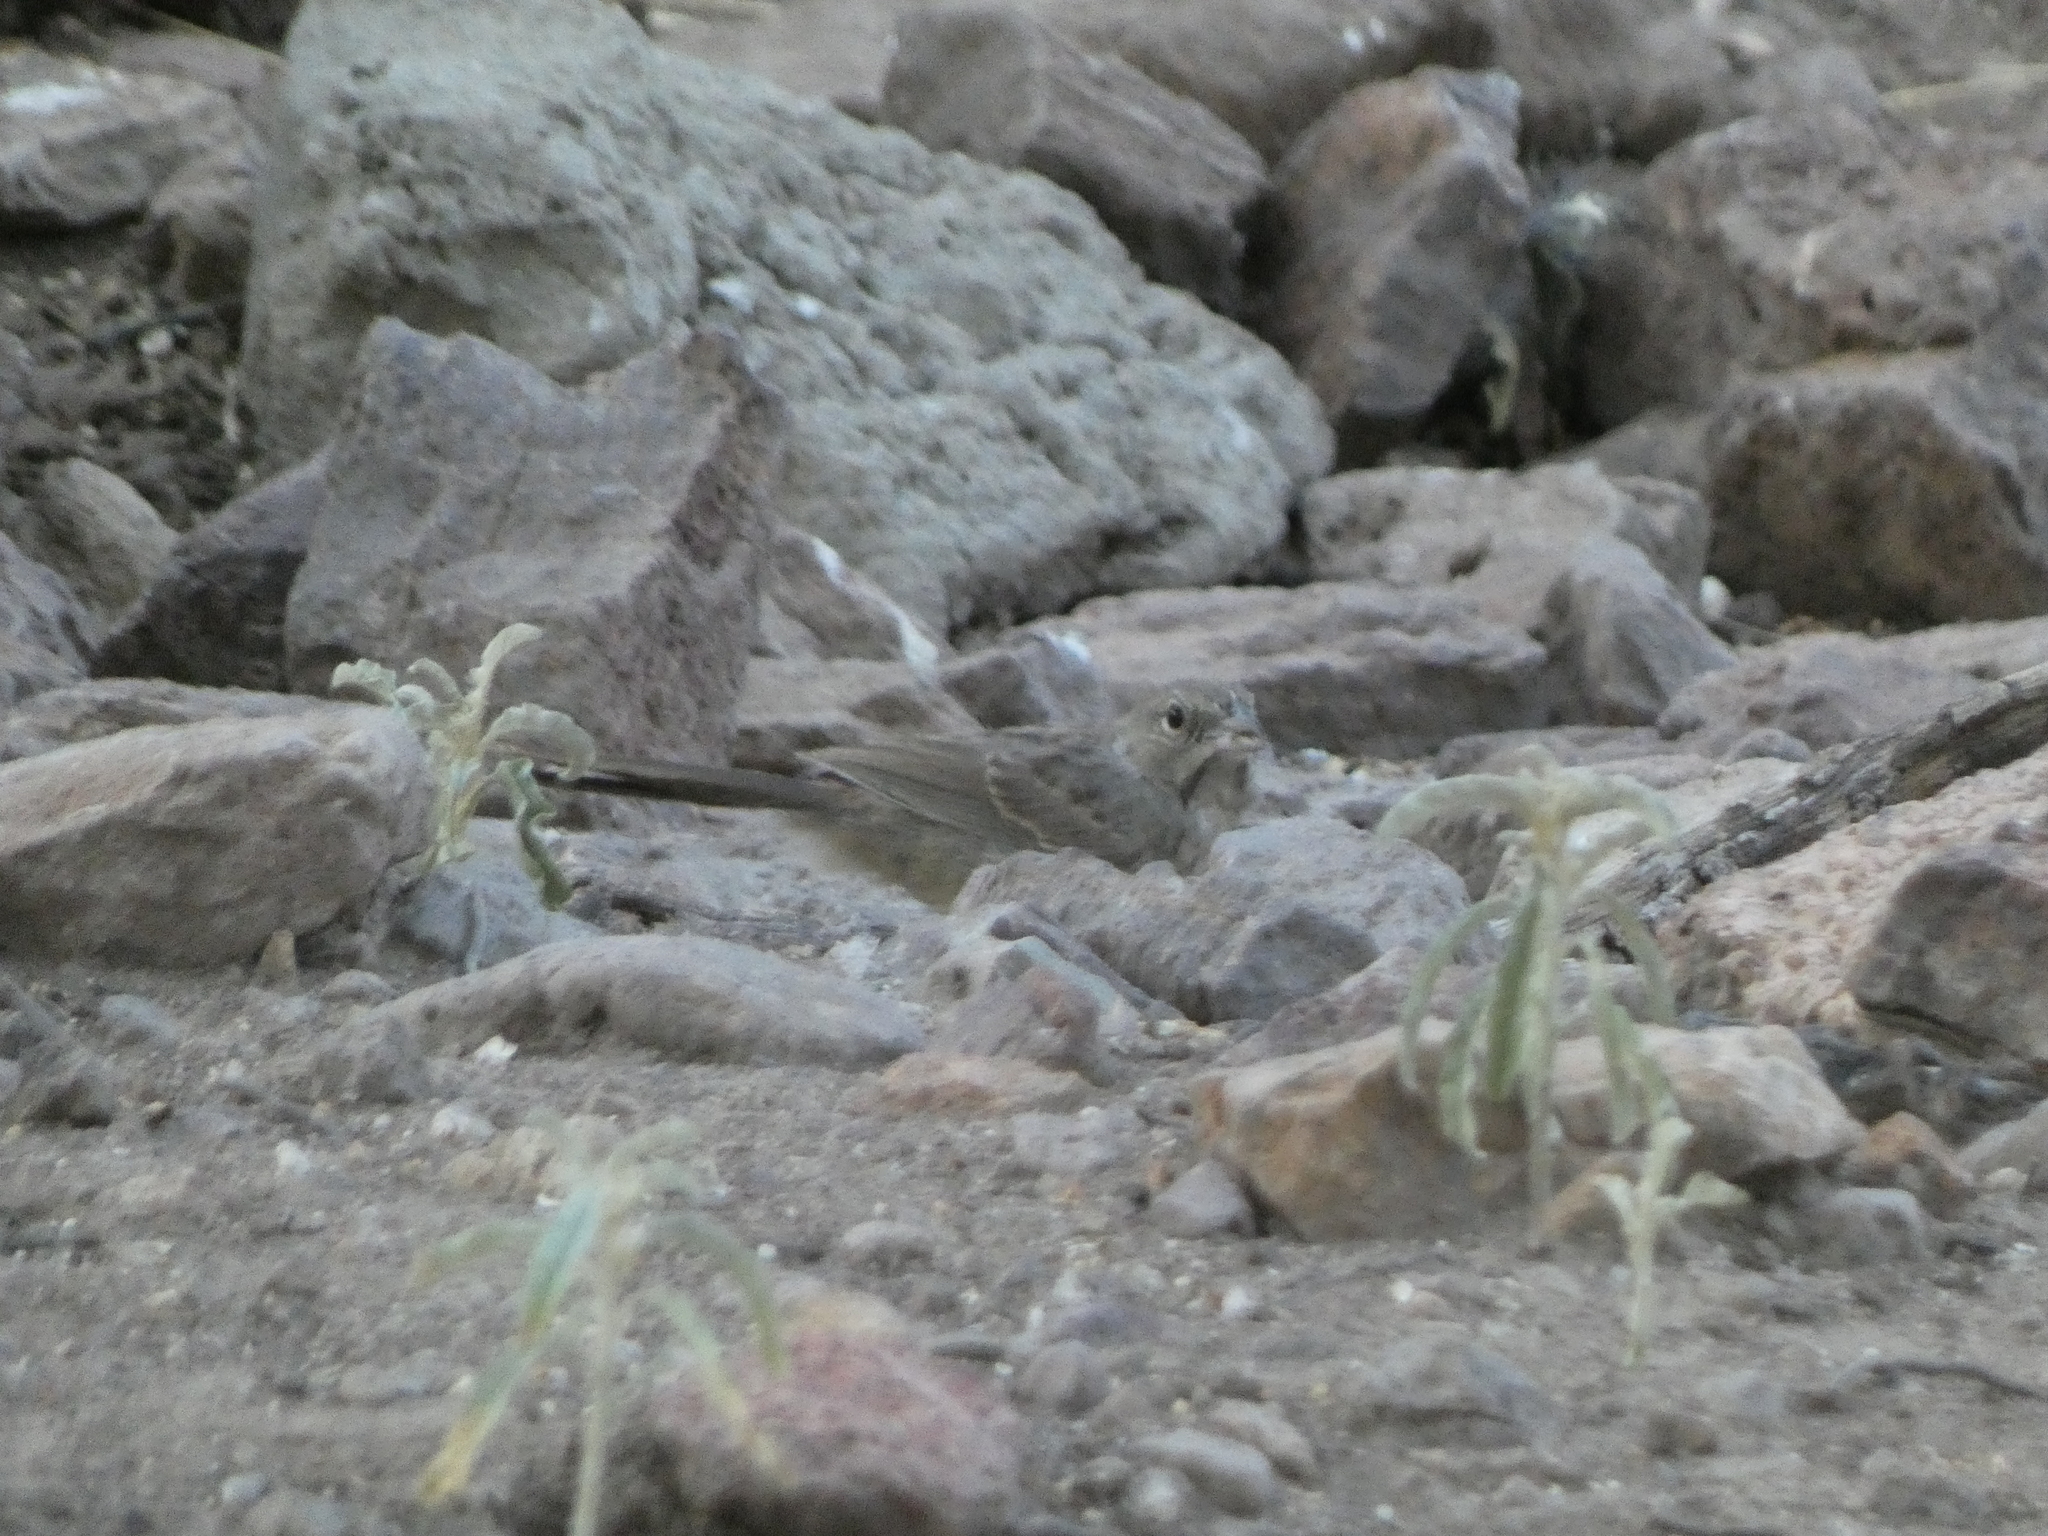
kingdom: Animalia
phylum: Chordata
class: Aves
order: Passeriformes
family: Passerellidae
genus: Aimophila
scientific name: Aimophila ruficeps
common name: Rufous-crowned sparrow
